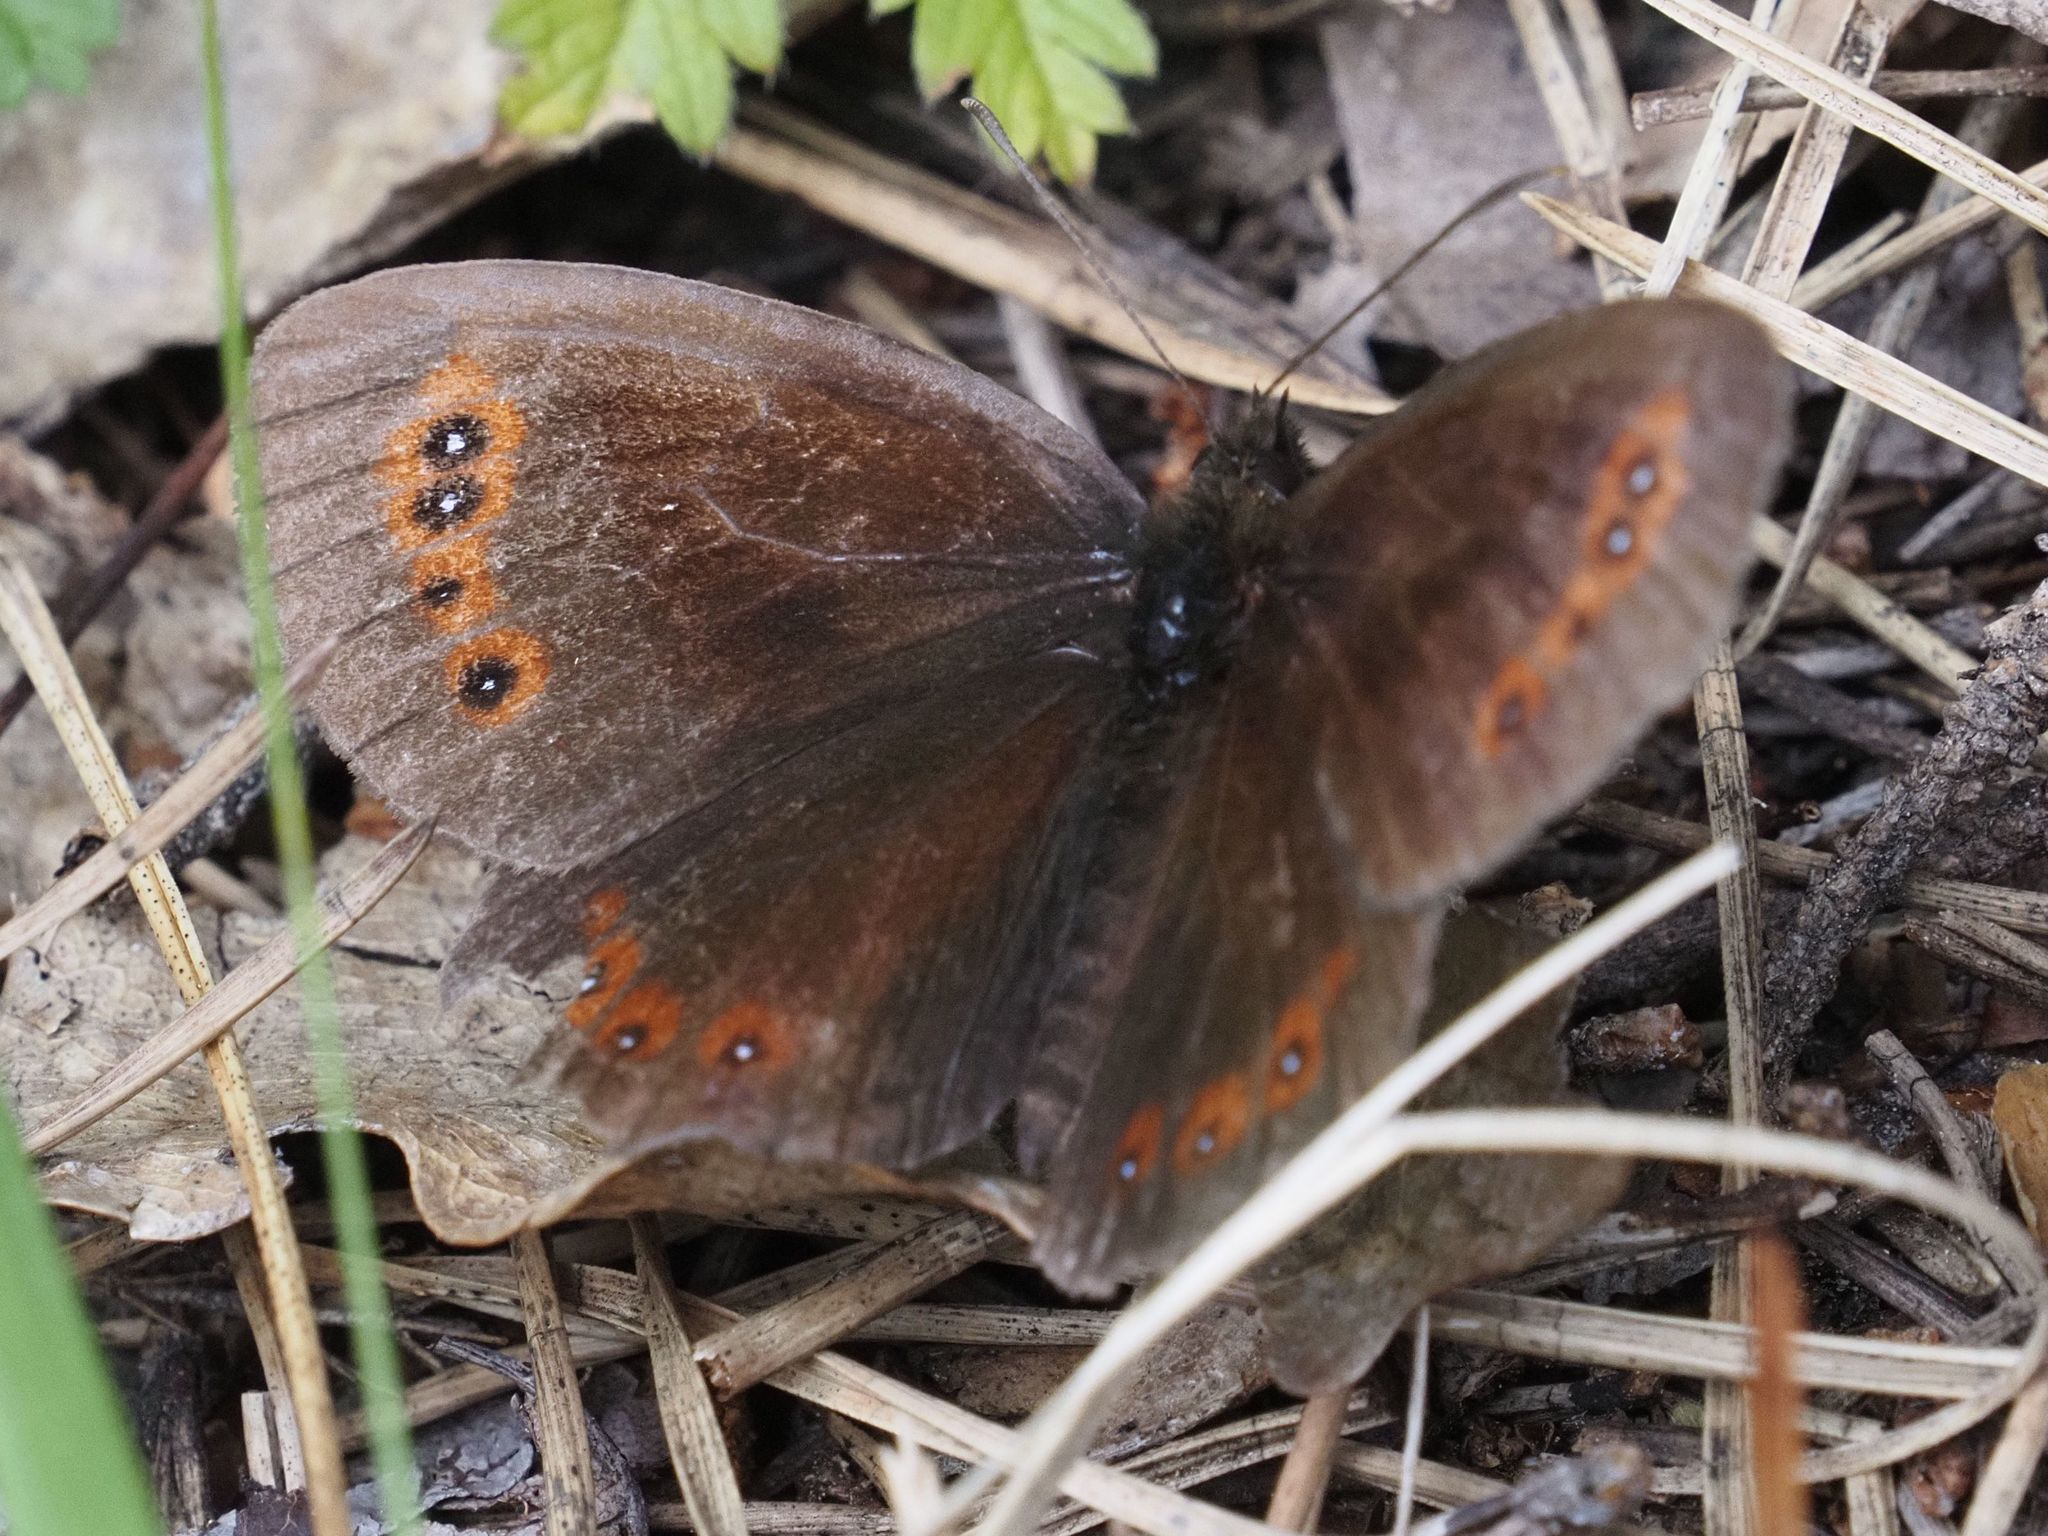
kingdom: Animalia
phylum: Arthropoda
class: Insecta
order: Lepidoptera
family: Nymphalidae
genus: Erebia
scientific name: Erebia aethiops
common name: Scotch argus
